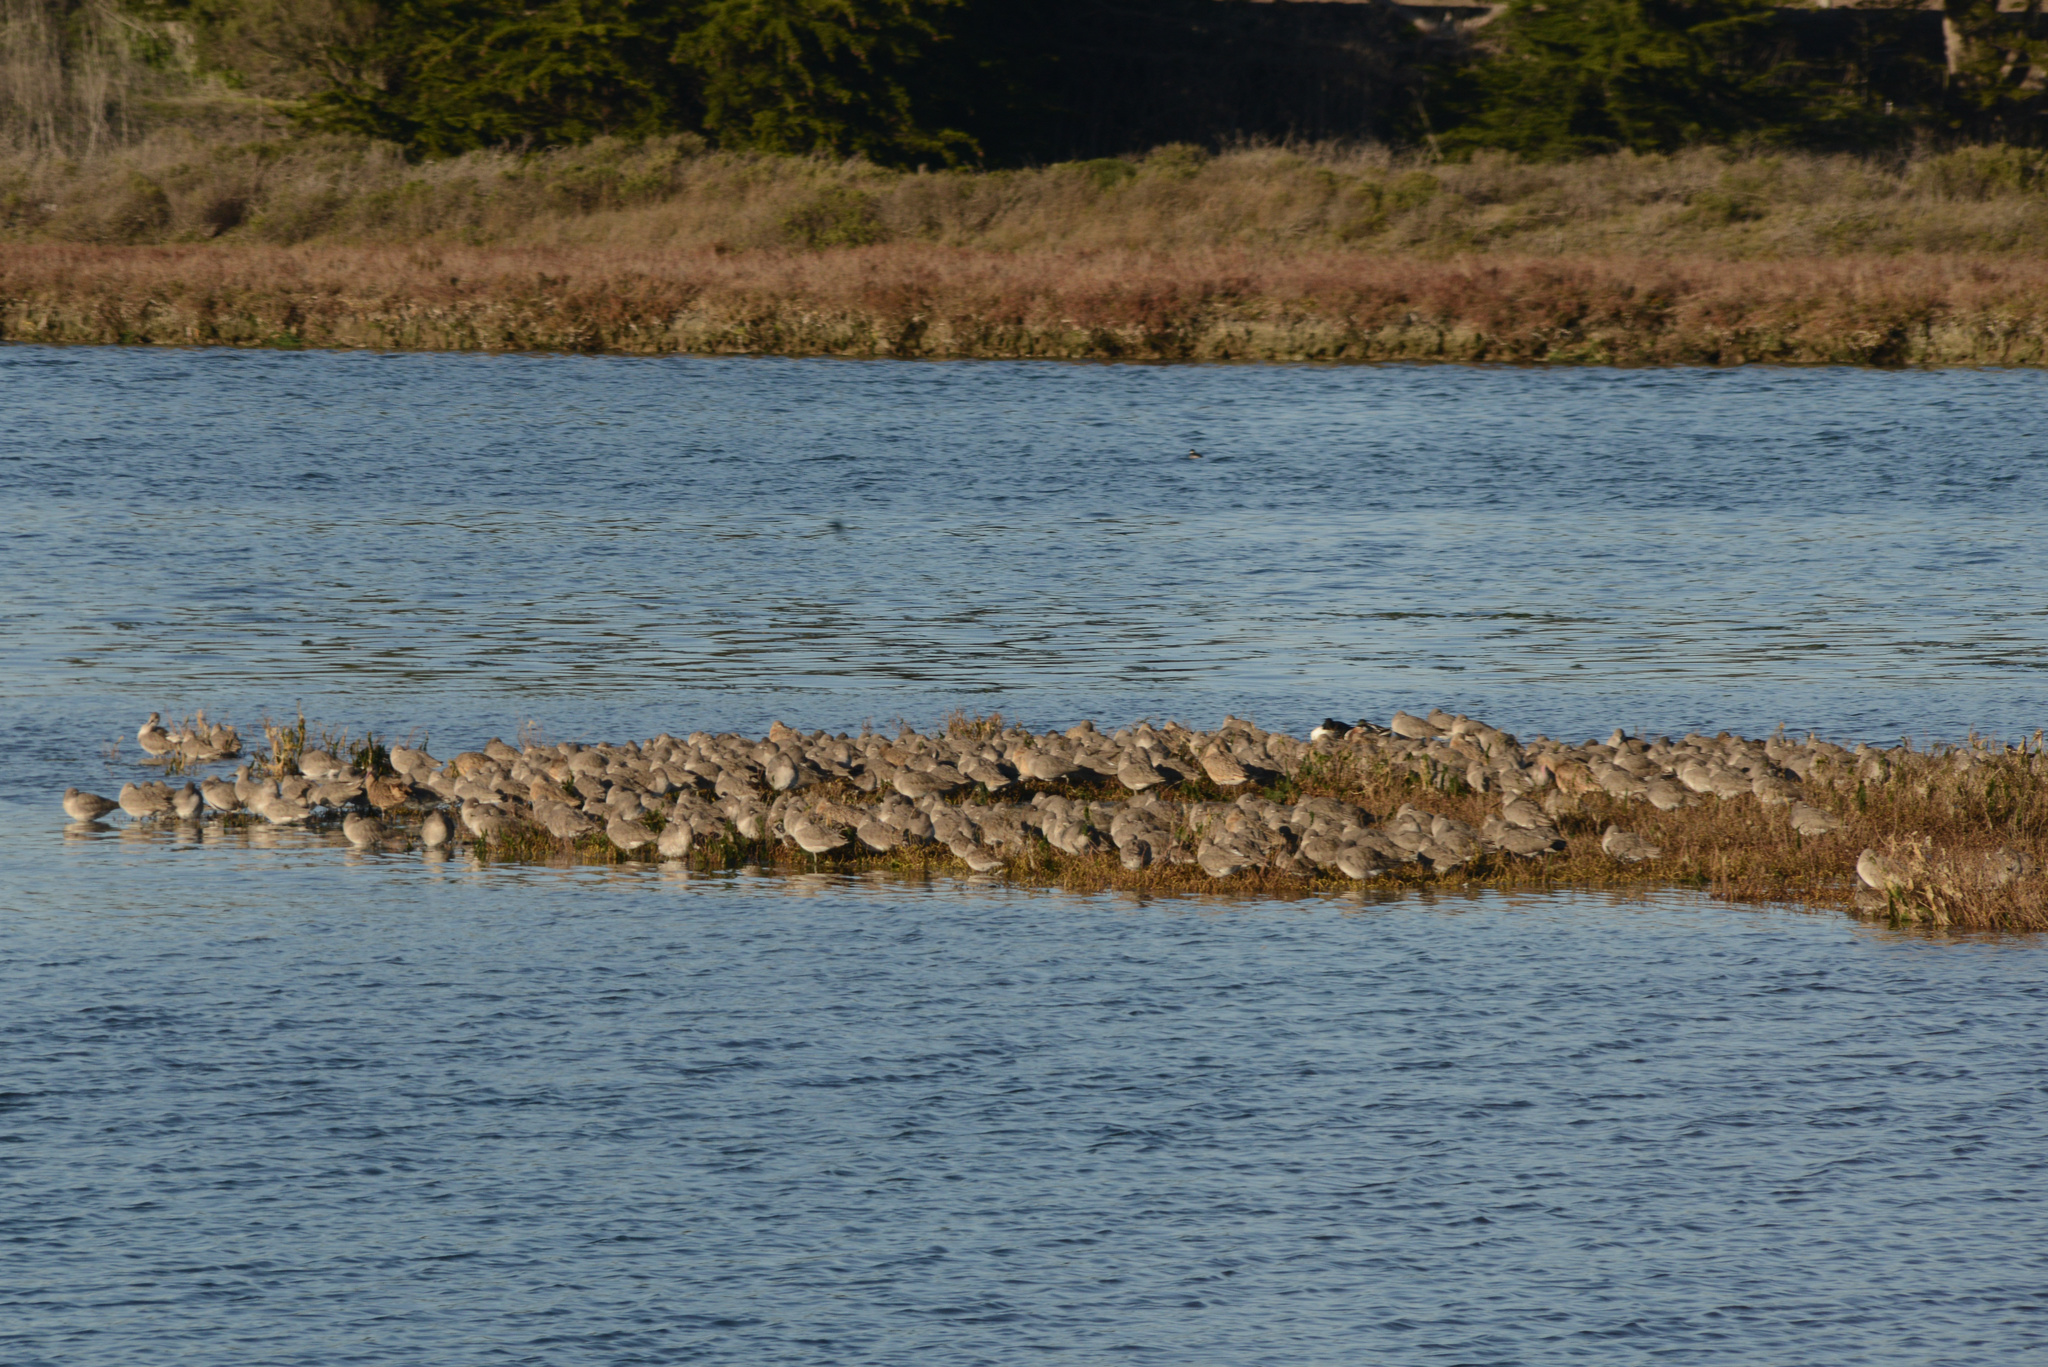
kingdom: Animalia
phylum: Chordata
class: Aves
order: Charadriiformes
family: Scolopacidae
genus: Tringa
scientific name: Tringa semipalmata
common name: Willet
